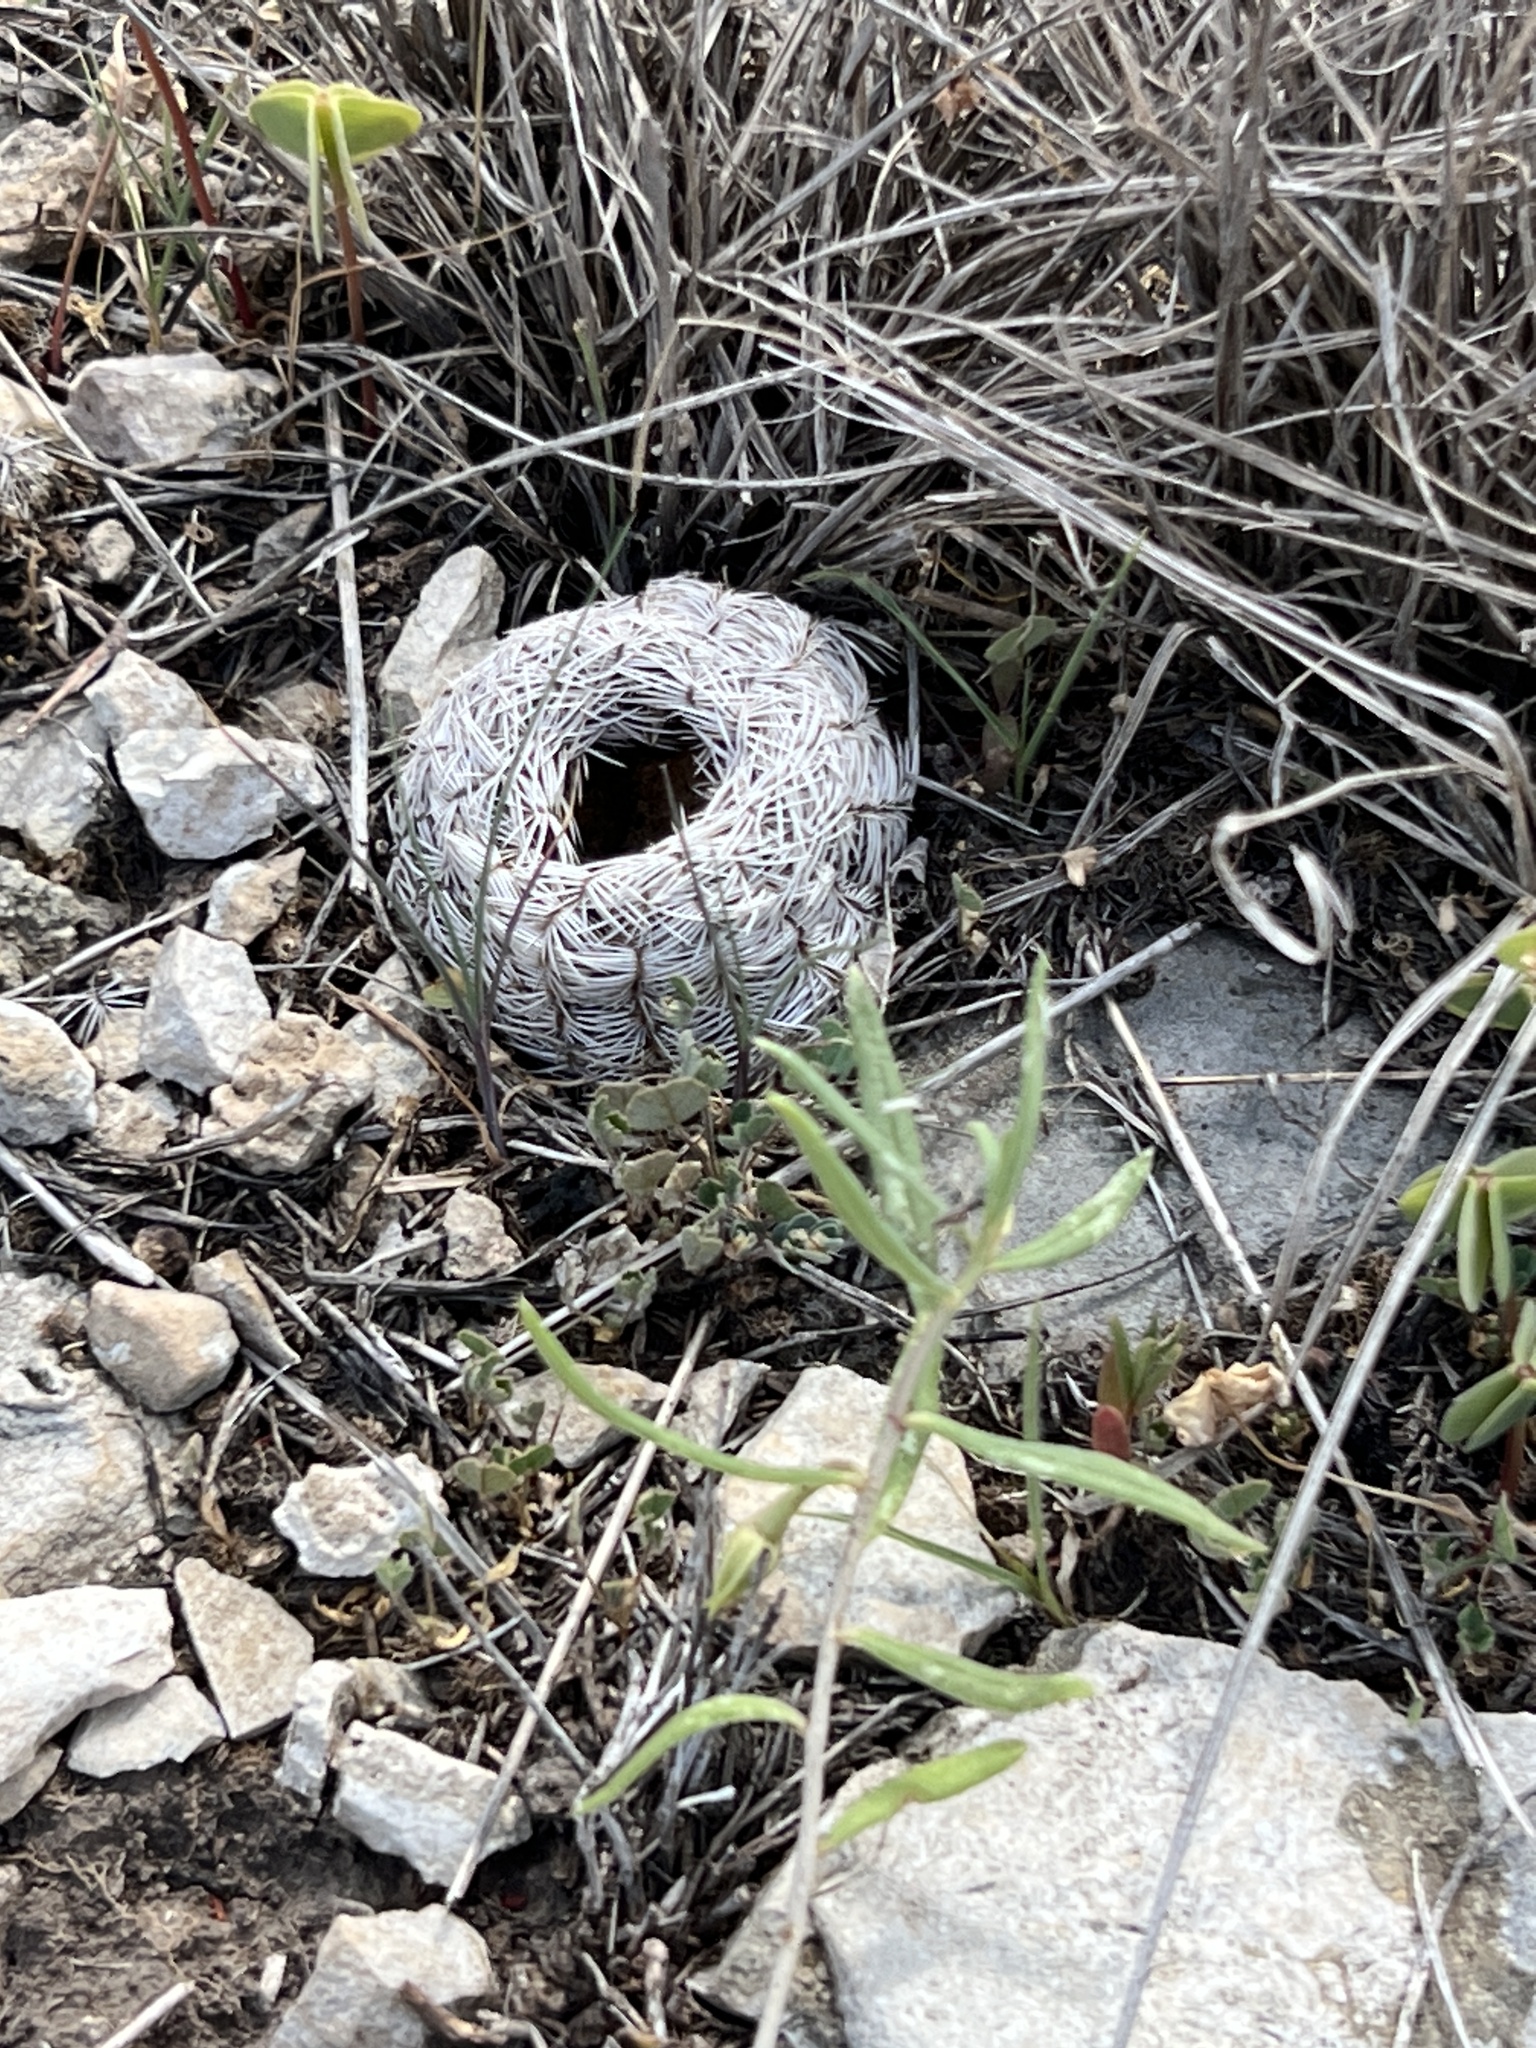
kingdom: Plantae
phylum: Tracheophyta
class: Magnoliopsida
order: Caryophyllales
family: Cactaceae
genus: Echinocereus
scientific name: Echinocereus reichenbachii
